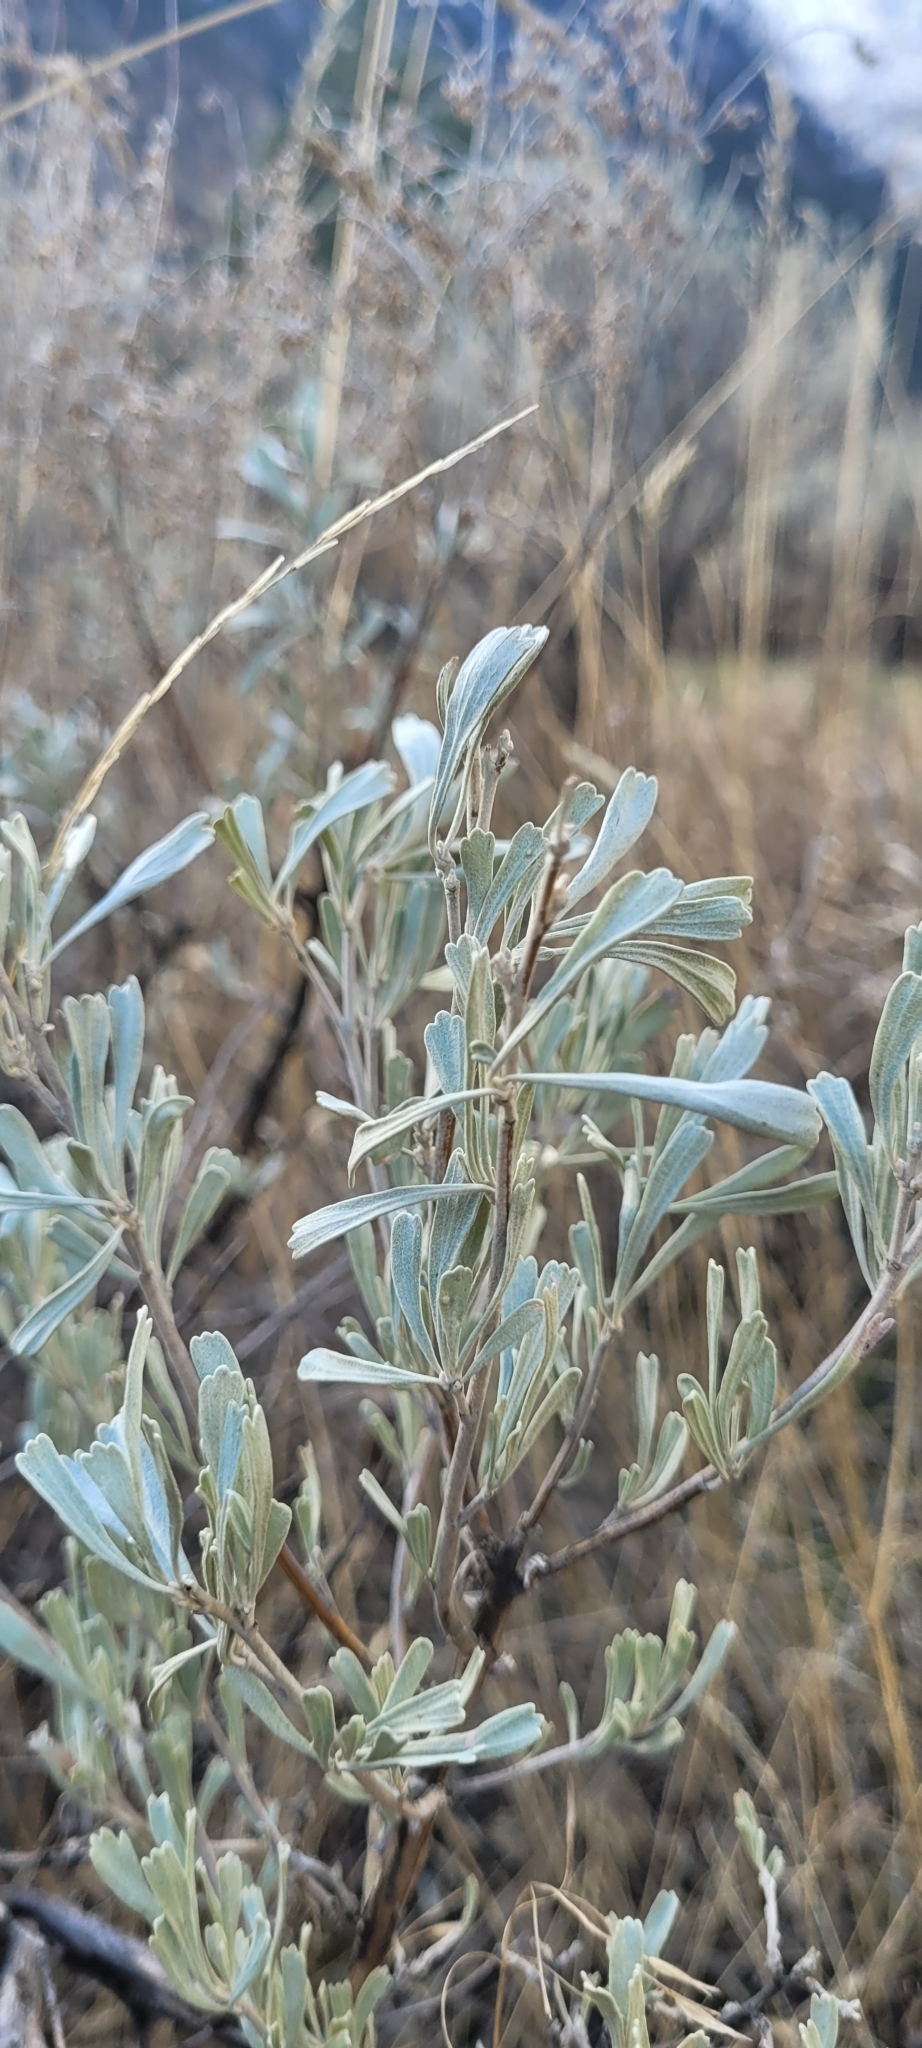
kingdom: Plantae
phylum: Tracheophyta
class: Magnoliopsida
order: Asterales
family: Asteraceae
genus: Artemisia
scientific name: Artemisia tridentata
